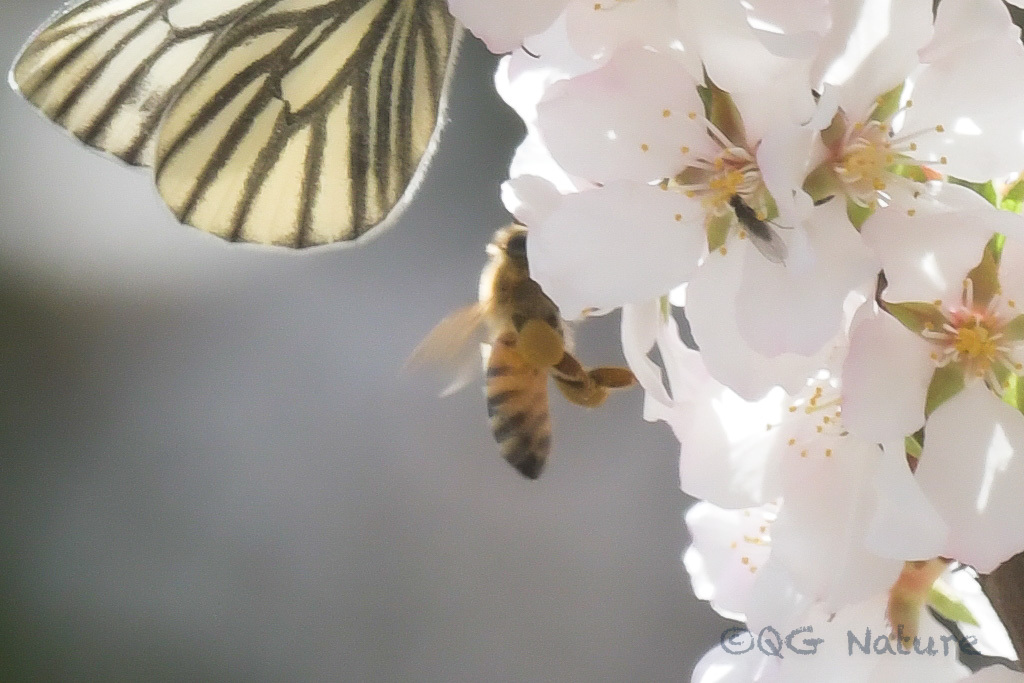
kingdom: Animalia
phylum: Arthropoda
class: Insecta
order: Hymenoptera
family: Apidae
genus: Apis
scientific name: Apis mellifera
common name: Honey bee
